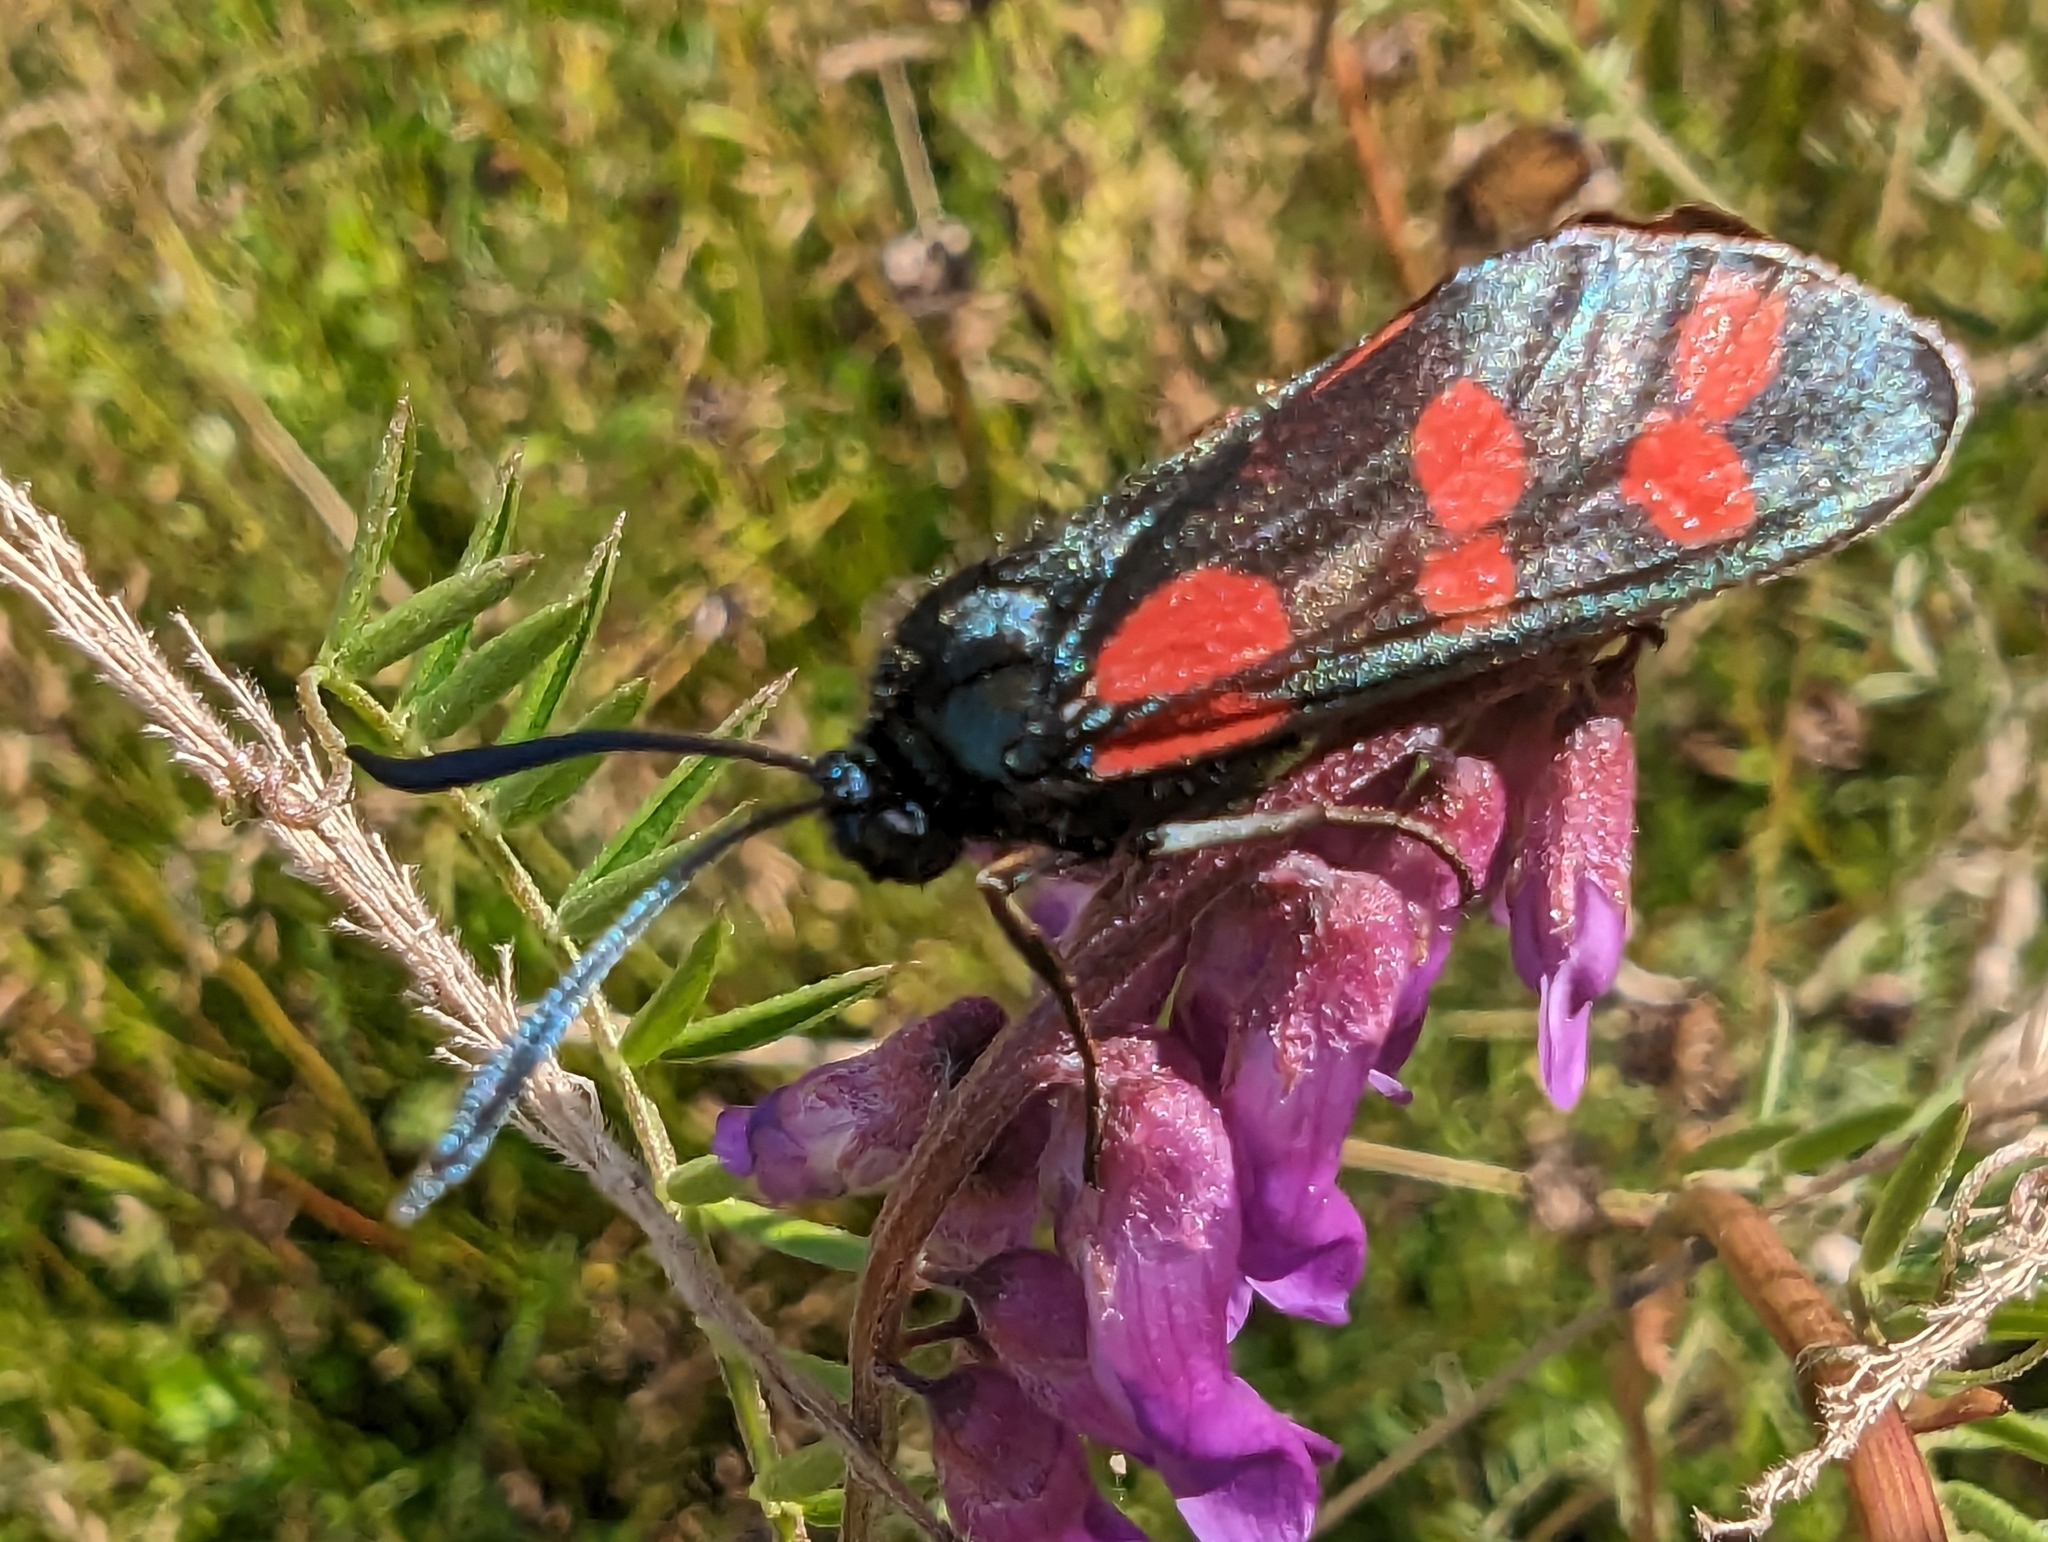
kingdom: Animalia
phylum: Arthropoda
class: Insecta
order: Lepidoptera
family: Zygaenidae
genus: Zygaena
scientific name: Zygaena filipendulae
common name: Six-spot burnet
